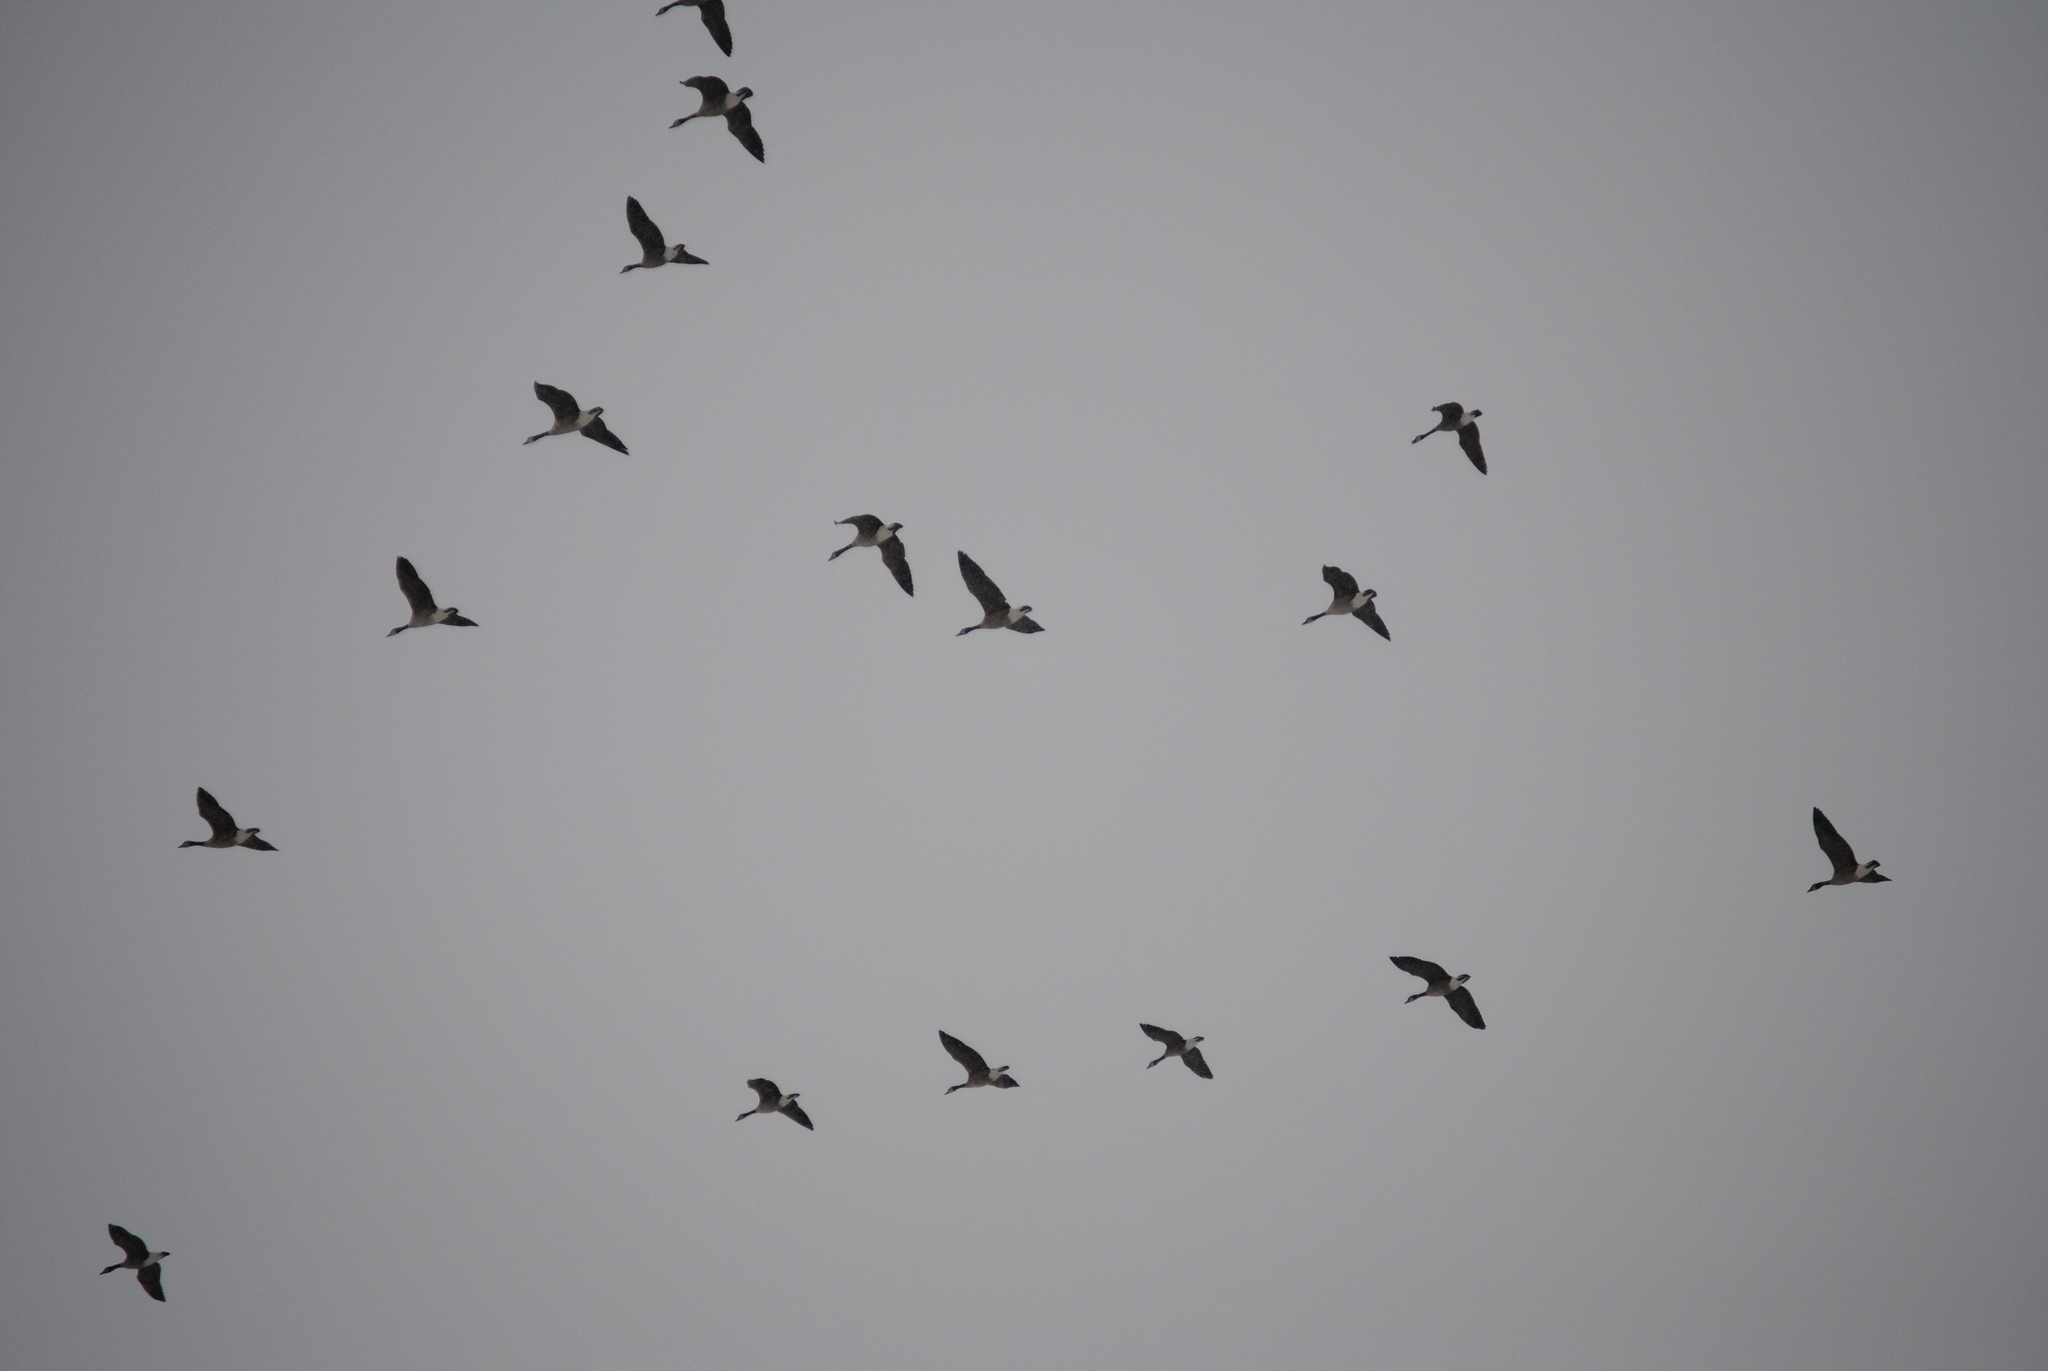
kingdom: Animalia
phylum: Chordata
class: Aves
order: Anseriformes
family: Anatidae
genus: Branta
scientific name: Branta canadensis
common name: Canada goose
